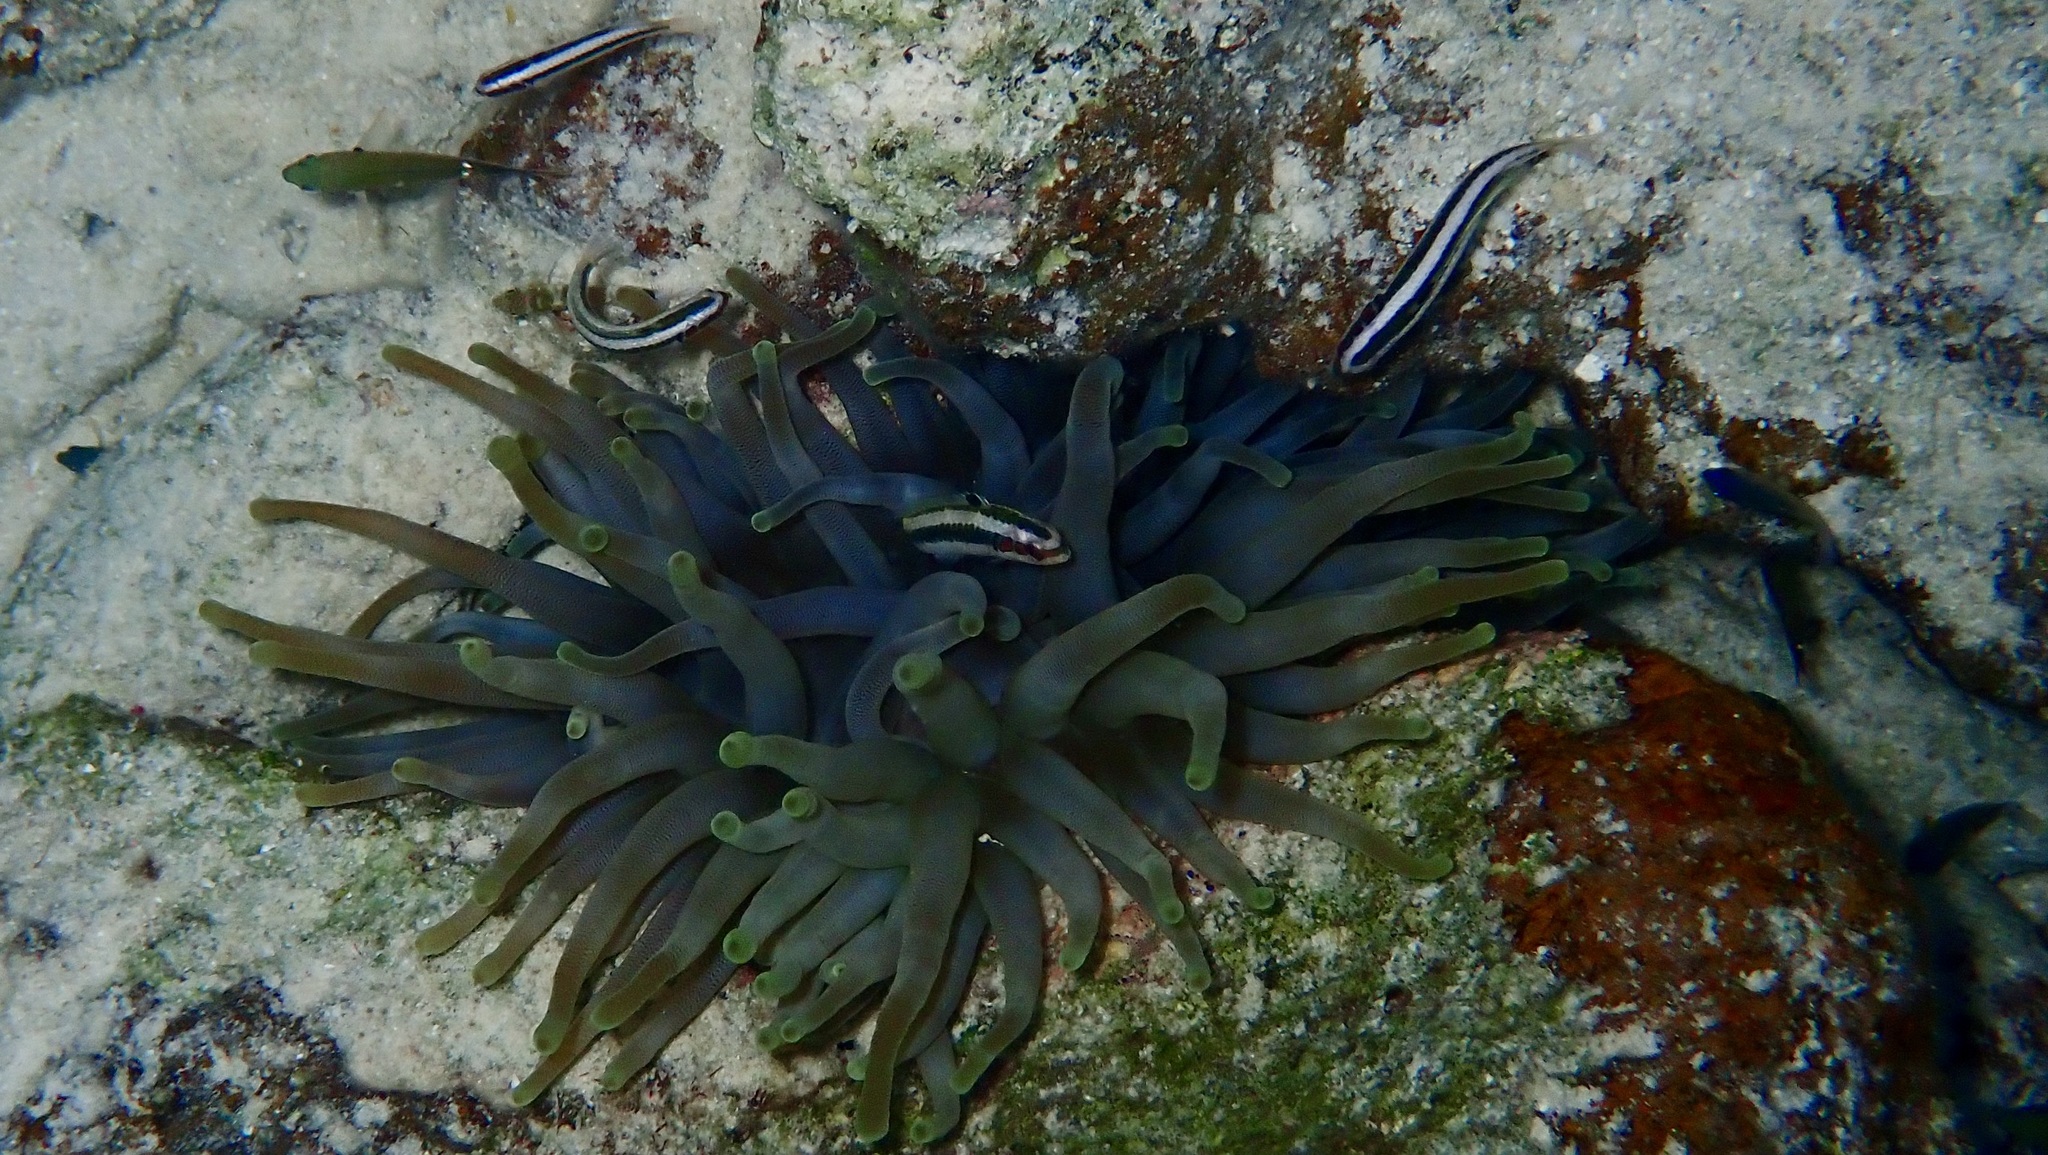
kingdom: Animalia
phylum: Cnidaria
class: Anthozoa
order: Actiniaria
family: Actiniidae
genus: Condylactis
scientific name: Condylactis gigantea
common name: Giant caribbean anemone
